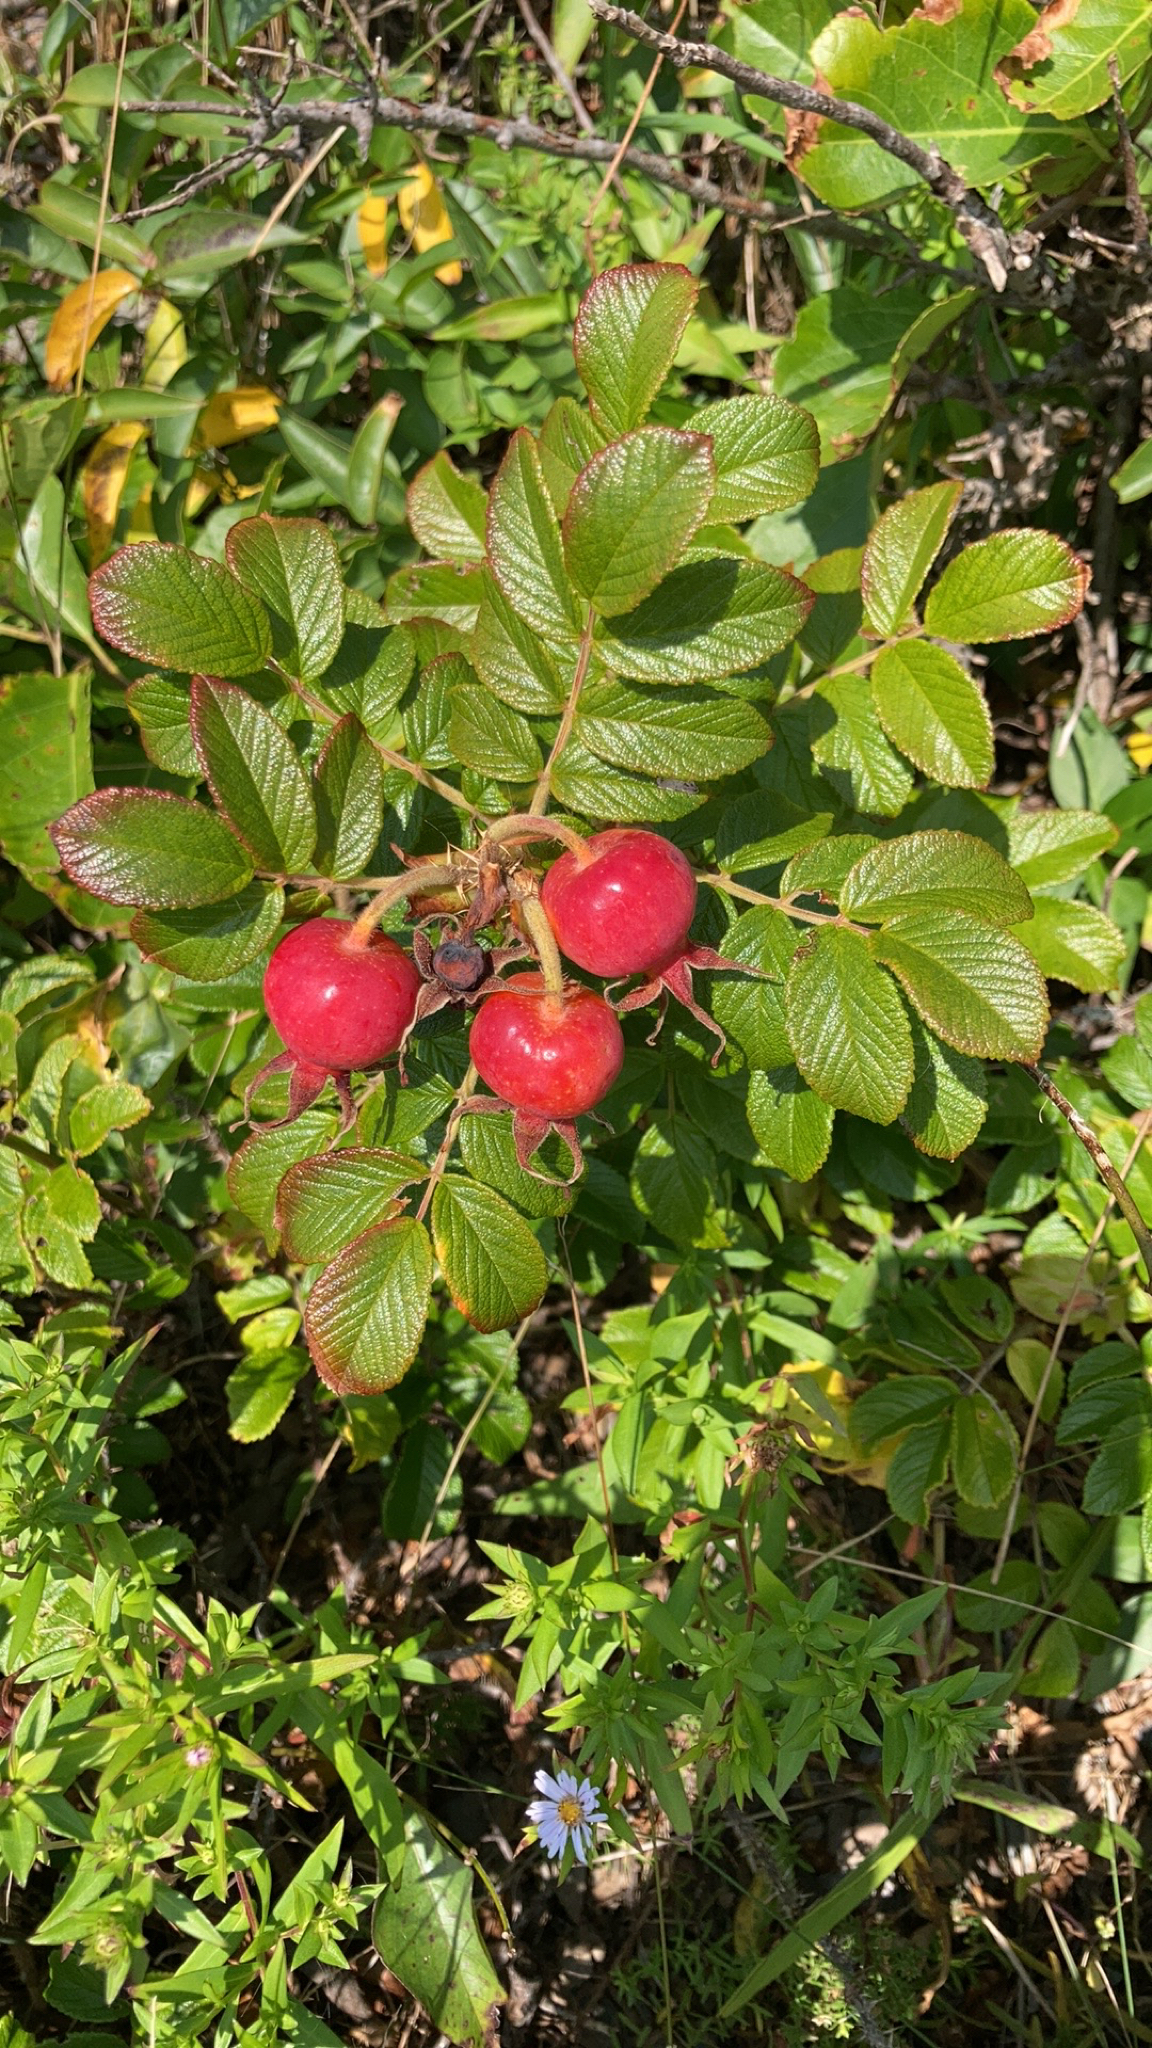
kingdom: Plantae
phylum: Tracheophyta
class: Magnoliopsida
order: Rosales
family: Rosaceae
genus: Rosa
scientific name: Rosa rugosa
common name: Japanese rose
